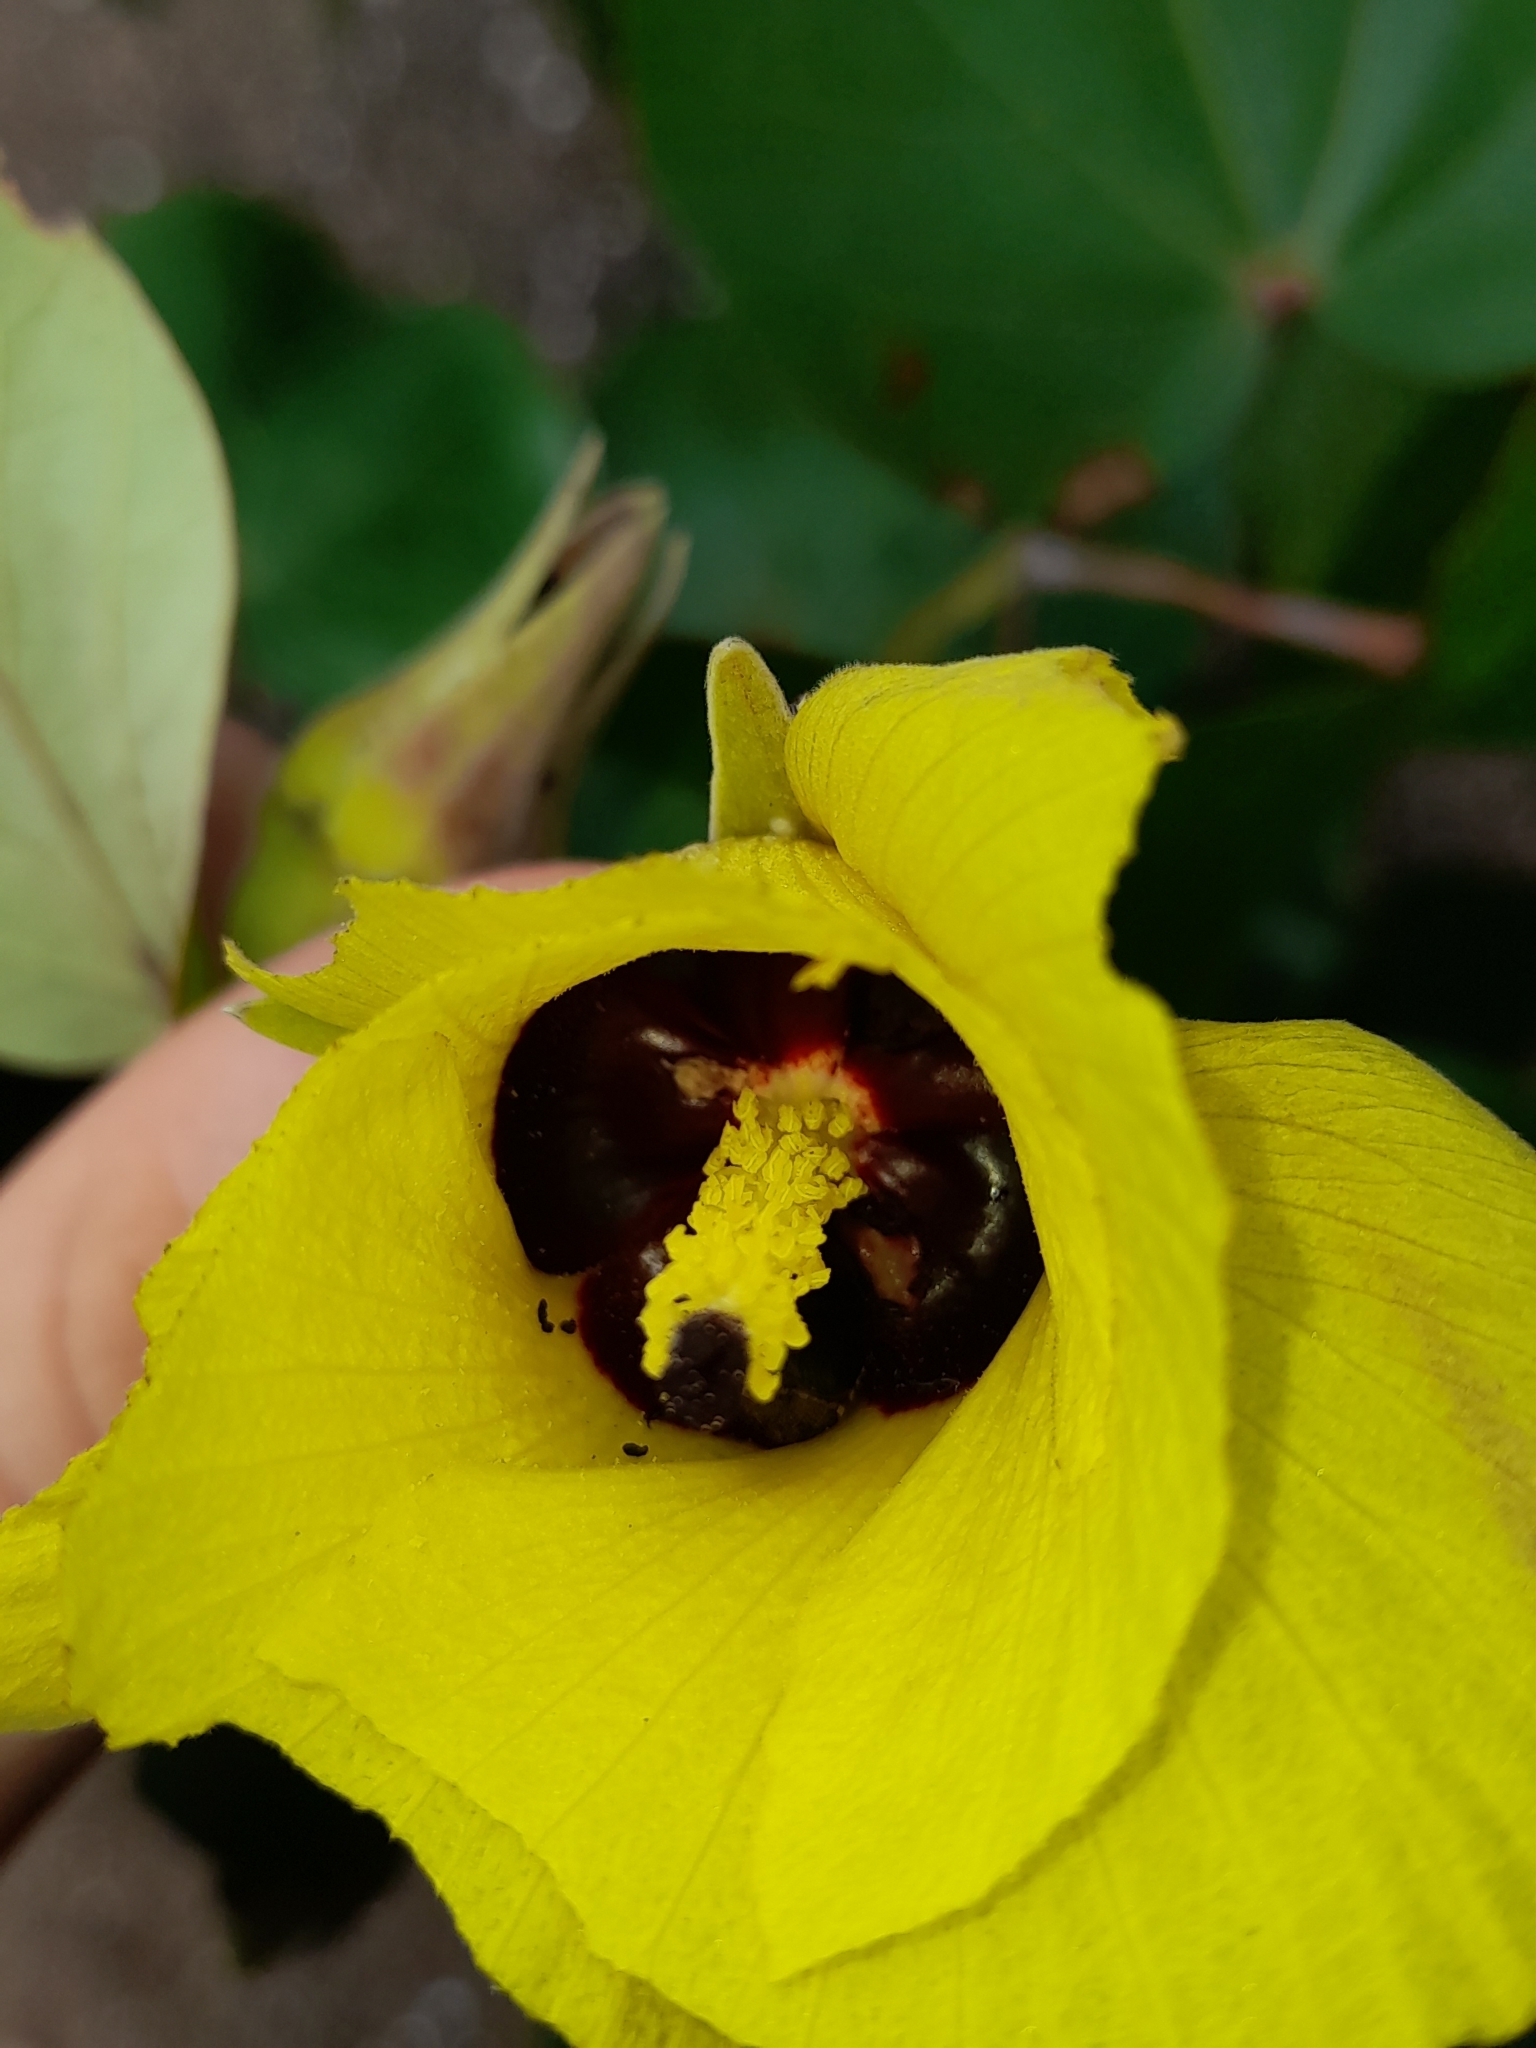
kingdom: Plantae
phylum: Tracheophyta
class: Magnoliopsida
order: Malvales
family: Malvaceae
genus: Talipariti
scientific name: Talipariti tiliaceum
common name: Sea hibiscus
